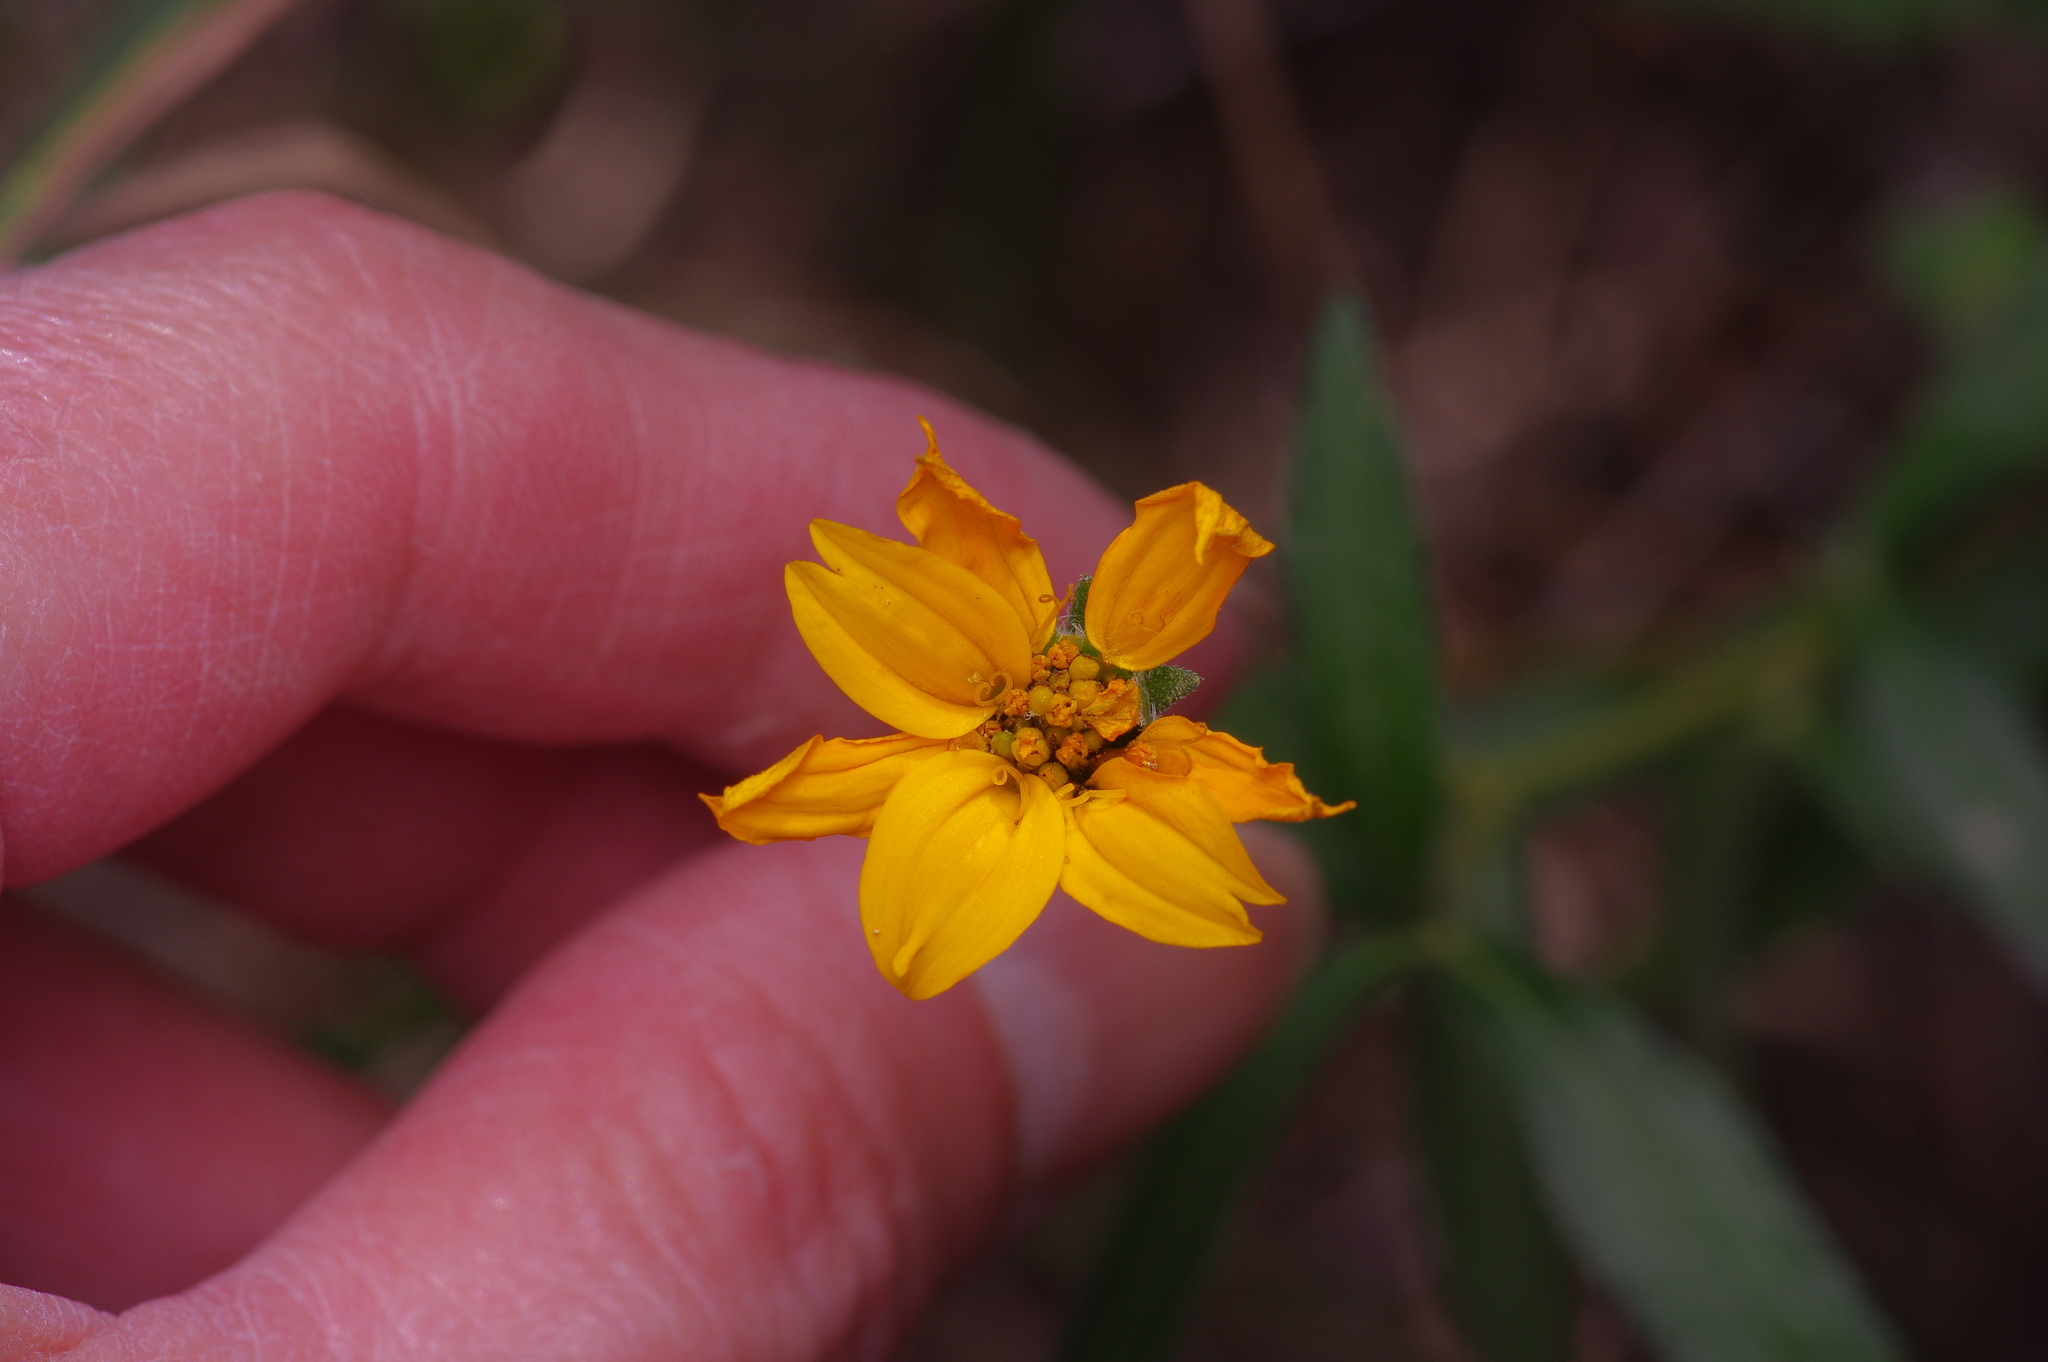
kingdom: Plantae
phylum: Tracheophyta
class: Magnoliopsida
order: Asterales
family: Asteraceae
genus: Wedelia
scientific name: Wedelia acapulcensis
